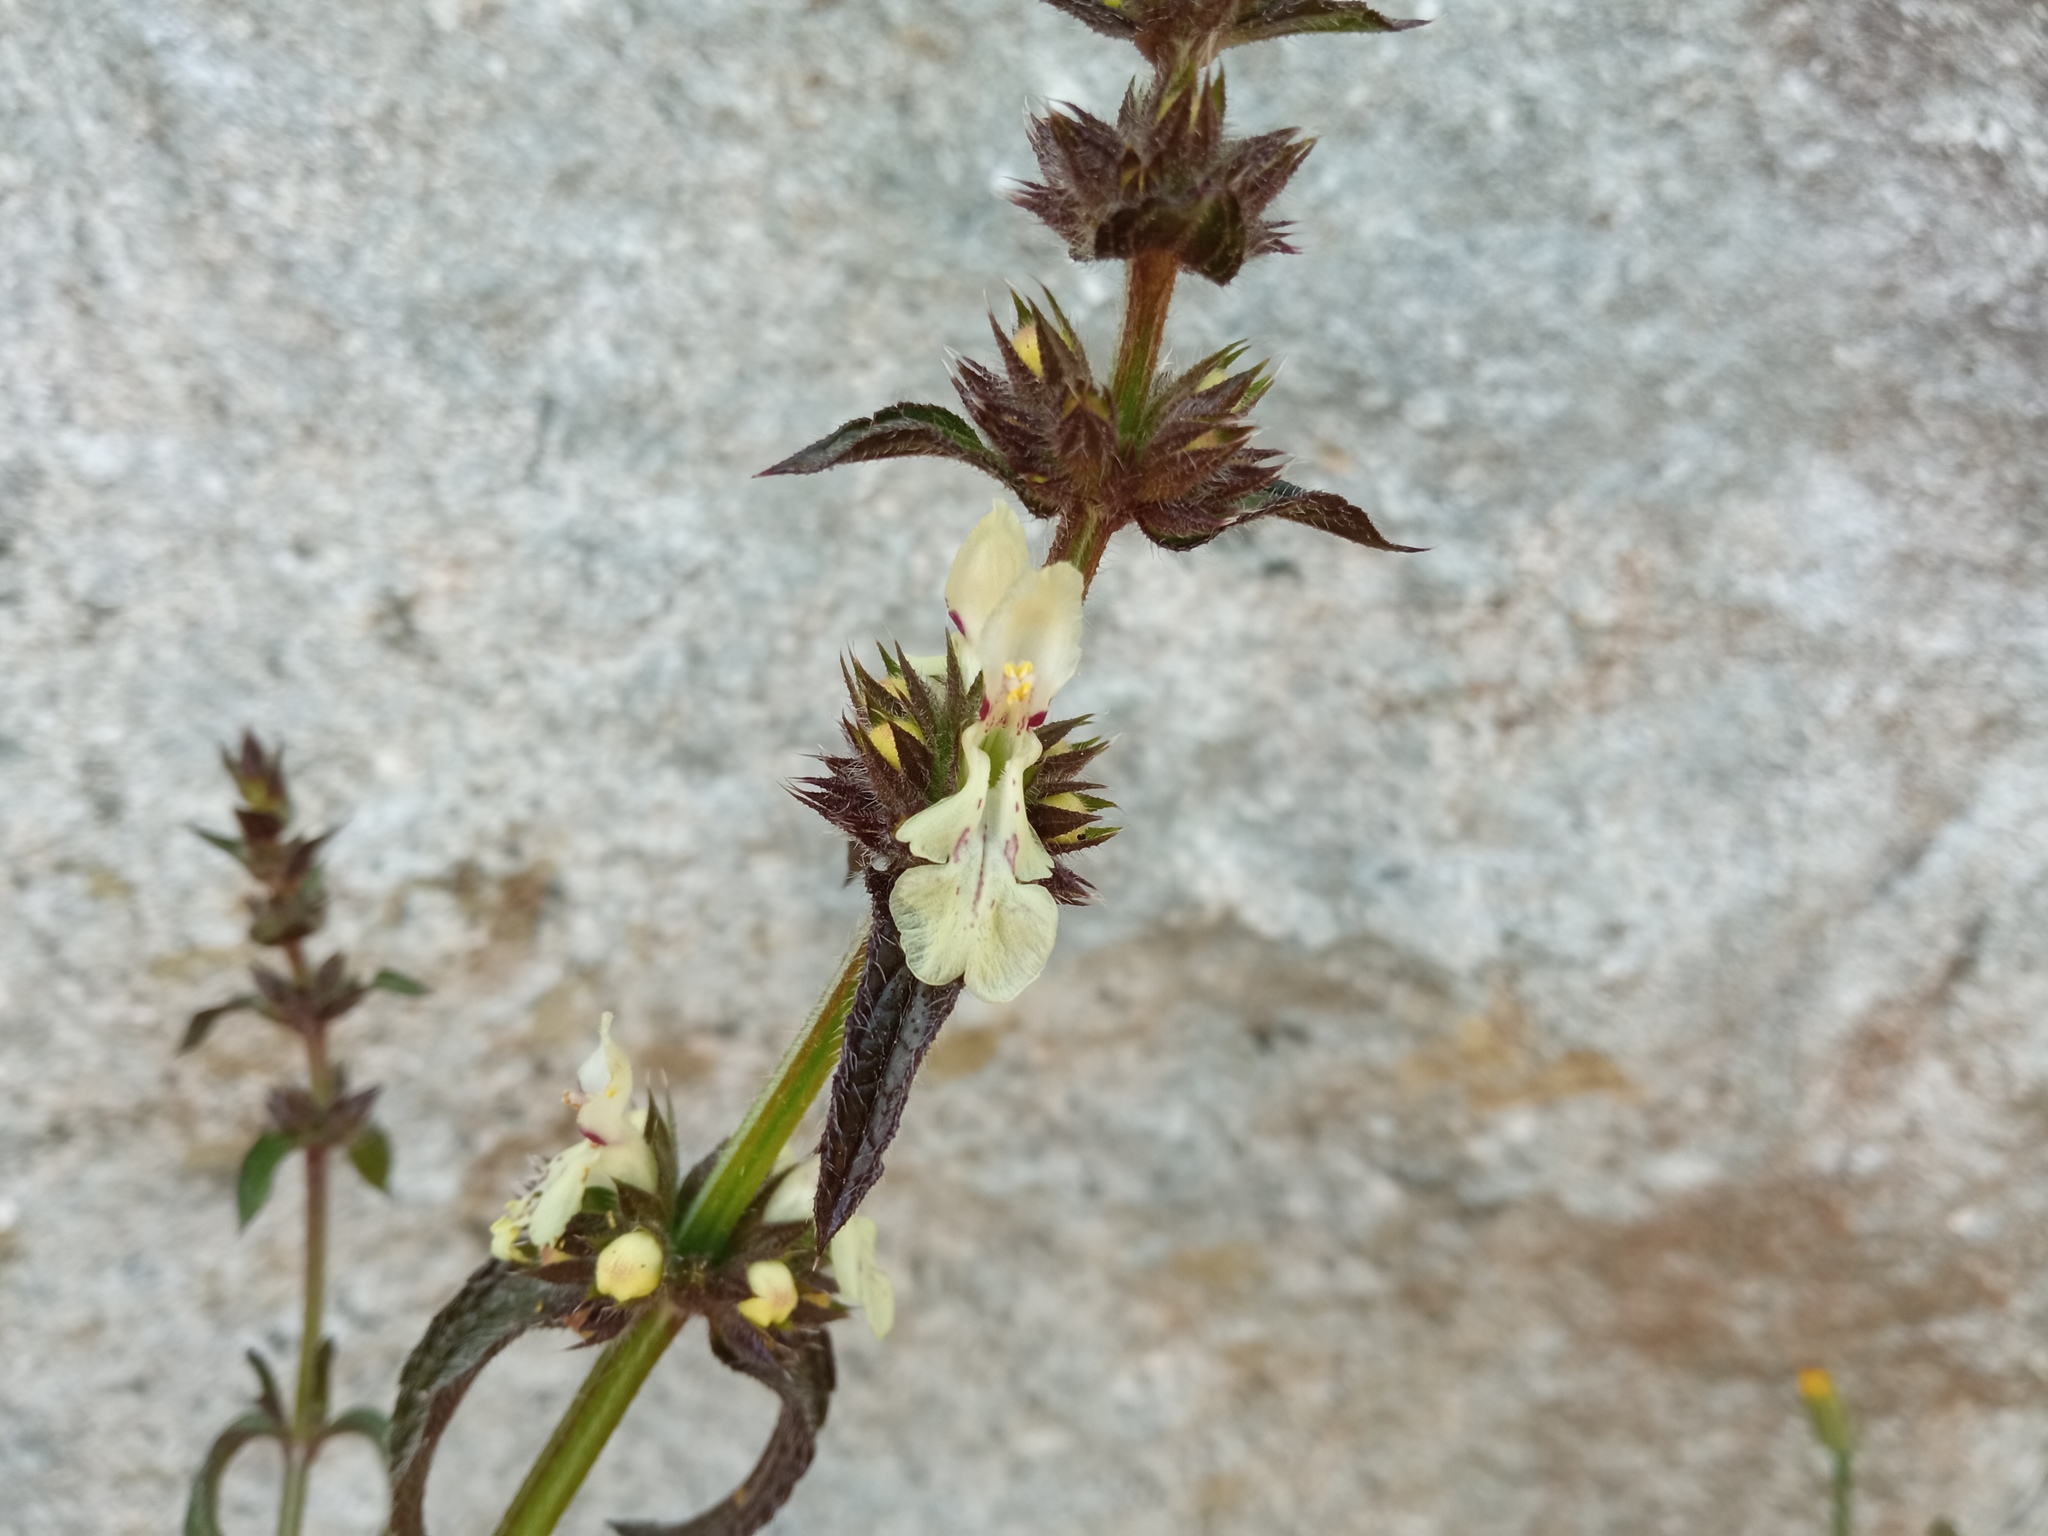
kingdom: Plantae
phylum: Tracheophyta
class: Magnoliopsida
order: Lamiales
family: Lamiaceae
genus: Stachys
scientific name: Stachys recta
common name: Perennial yellow-woundwort
